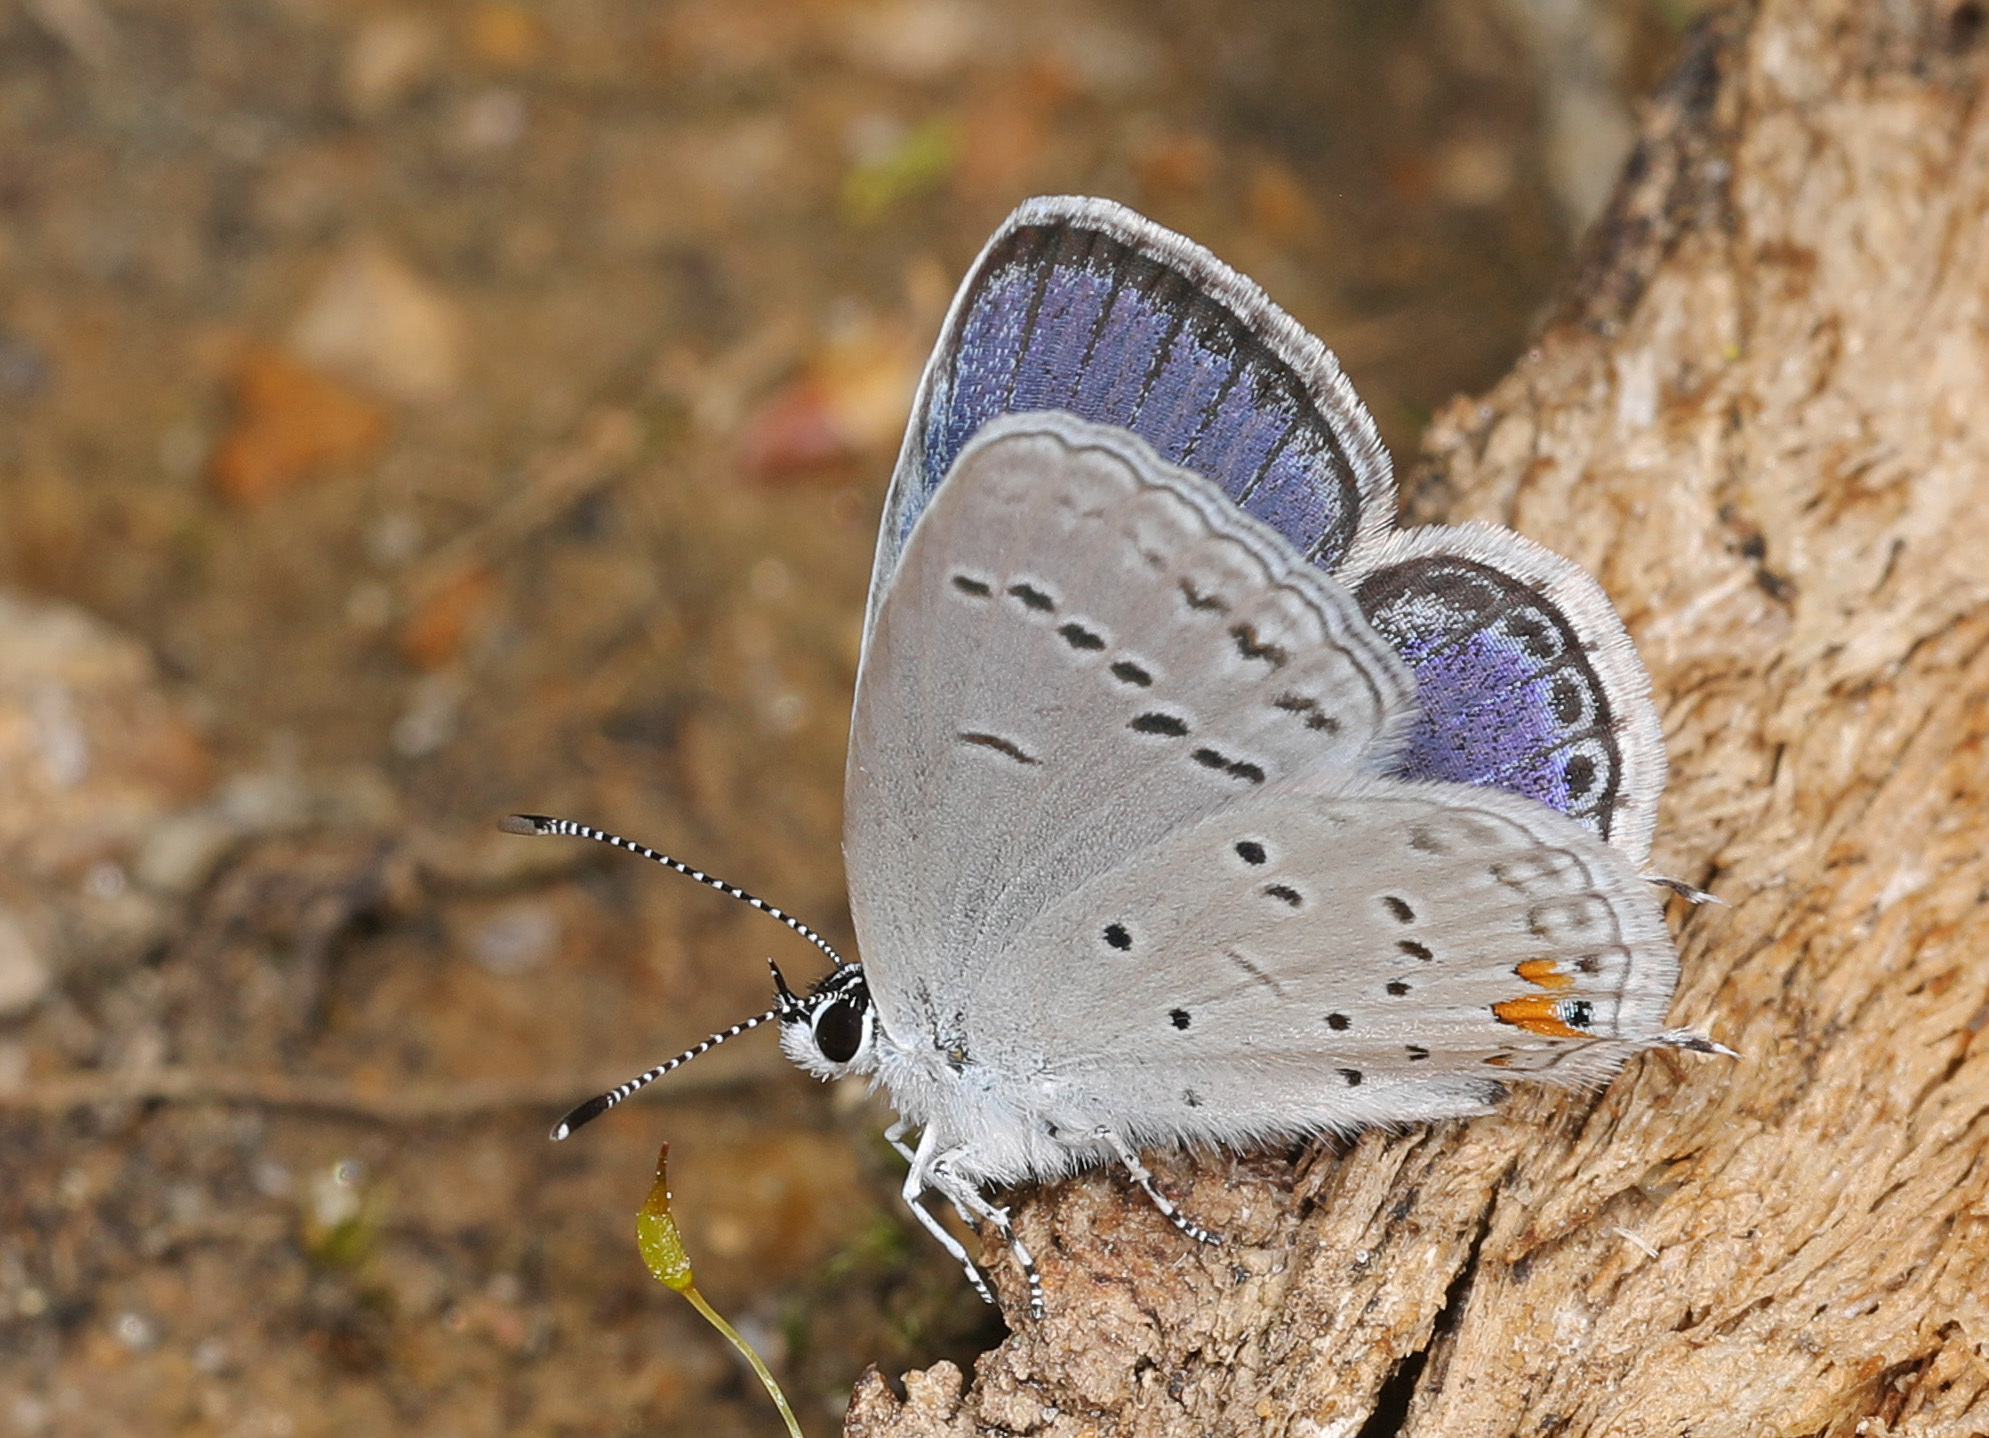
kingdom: Animalia
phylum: Arthropoda
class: Insecta
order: Lepidoptera
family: Lycaenidae
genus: Elkalyce
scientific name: Elkalyce comyntas
